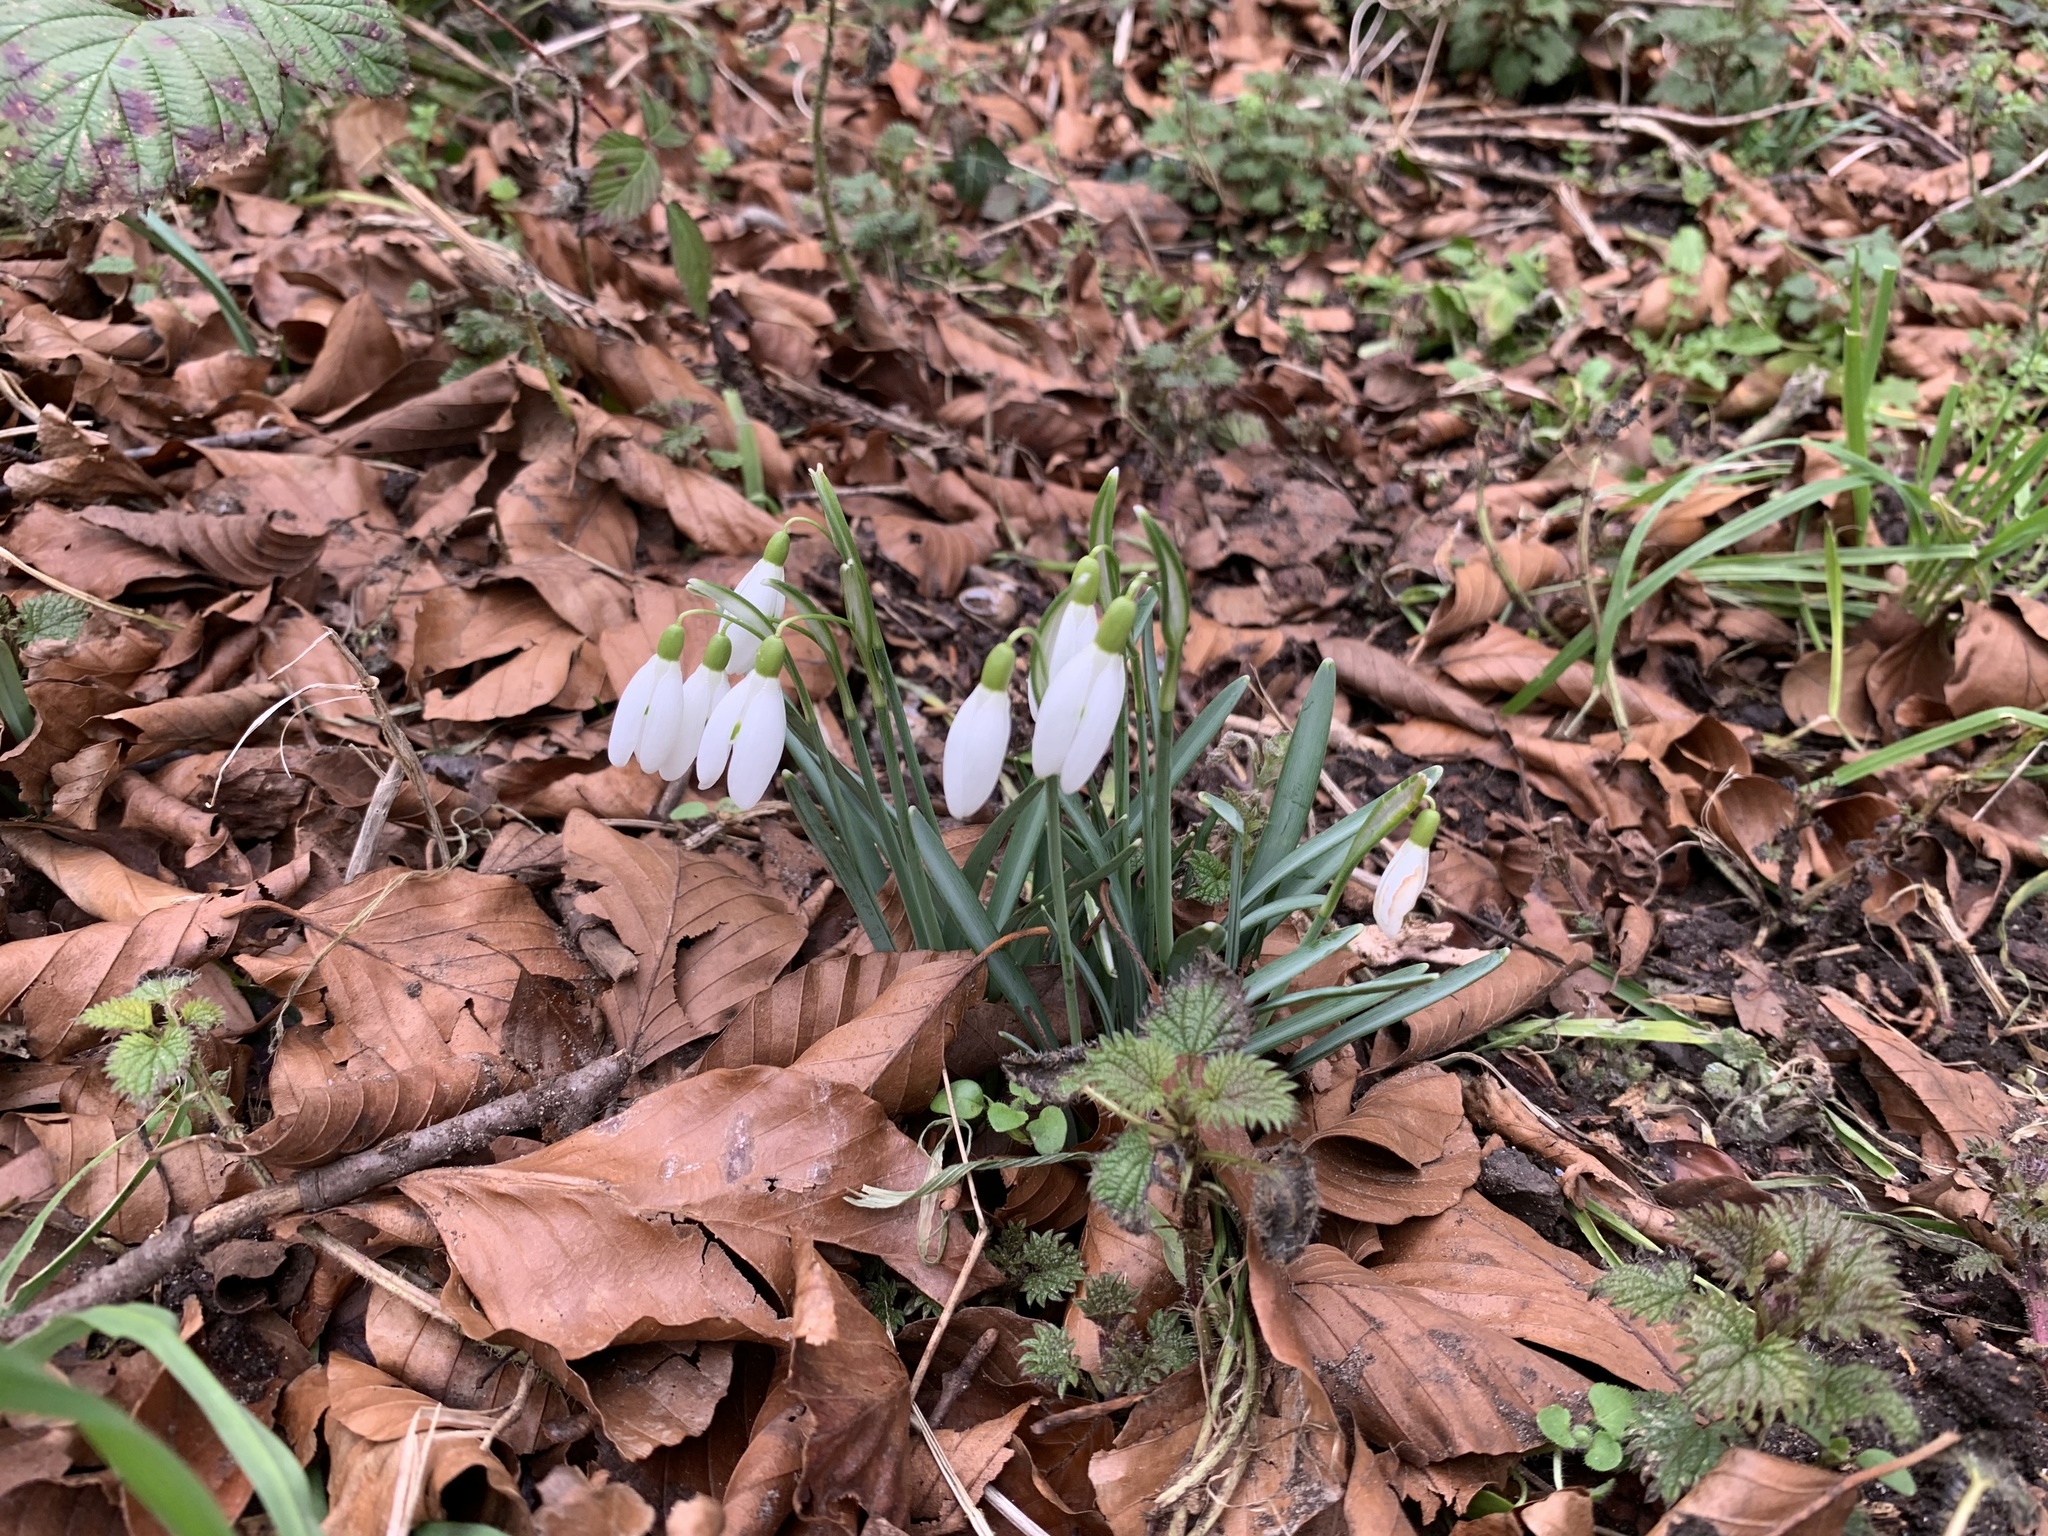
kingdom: Plantae
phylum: Tracheophyta
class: Liliopsida
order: Asparagales
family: Amaryllidaceae
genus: Galanthus
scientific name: Galanthus nivalis
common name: Snowdrop
